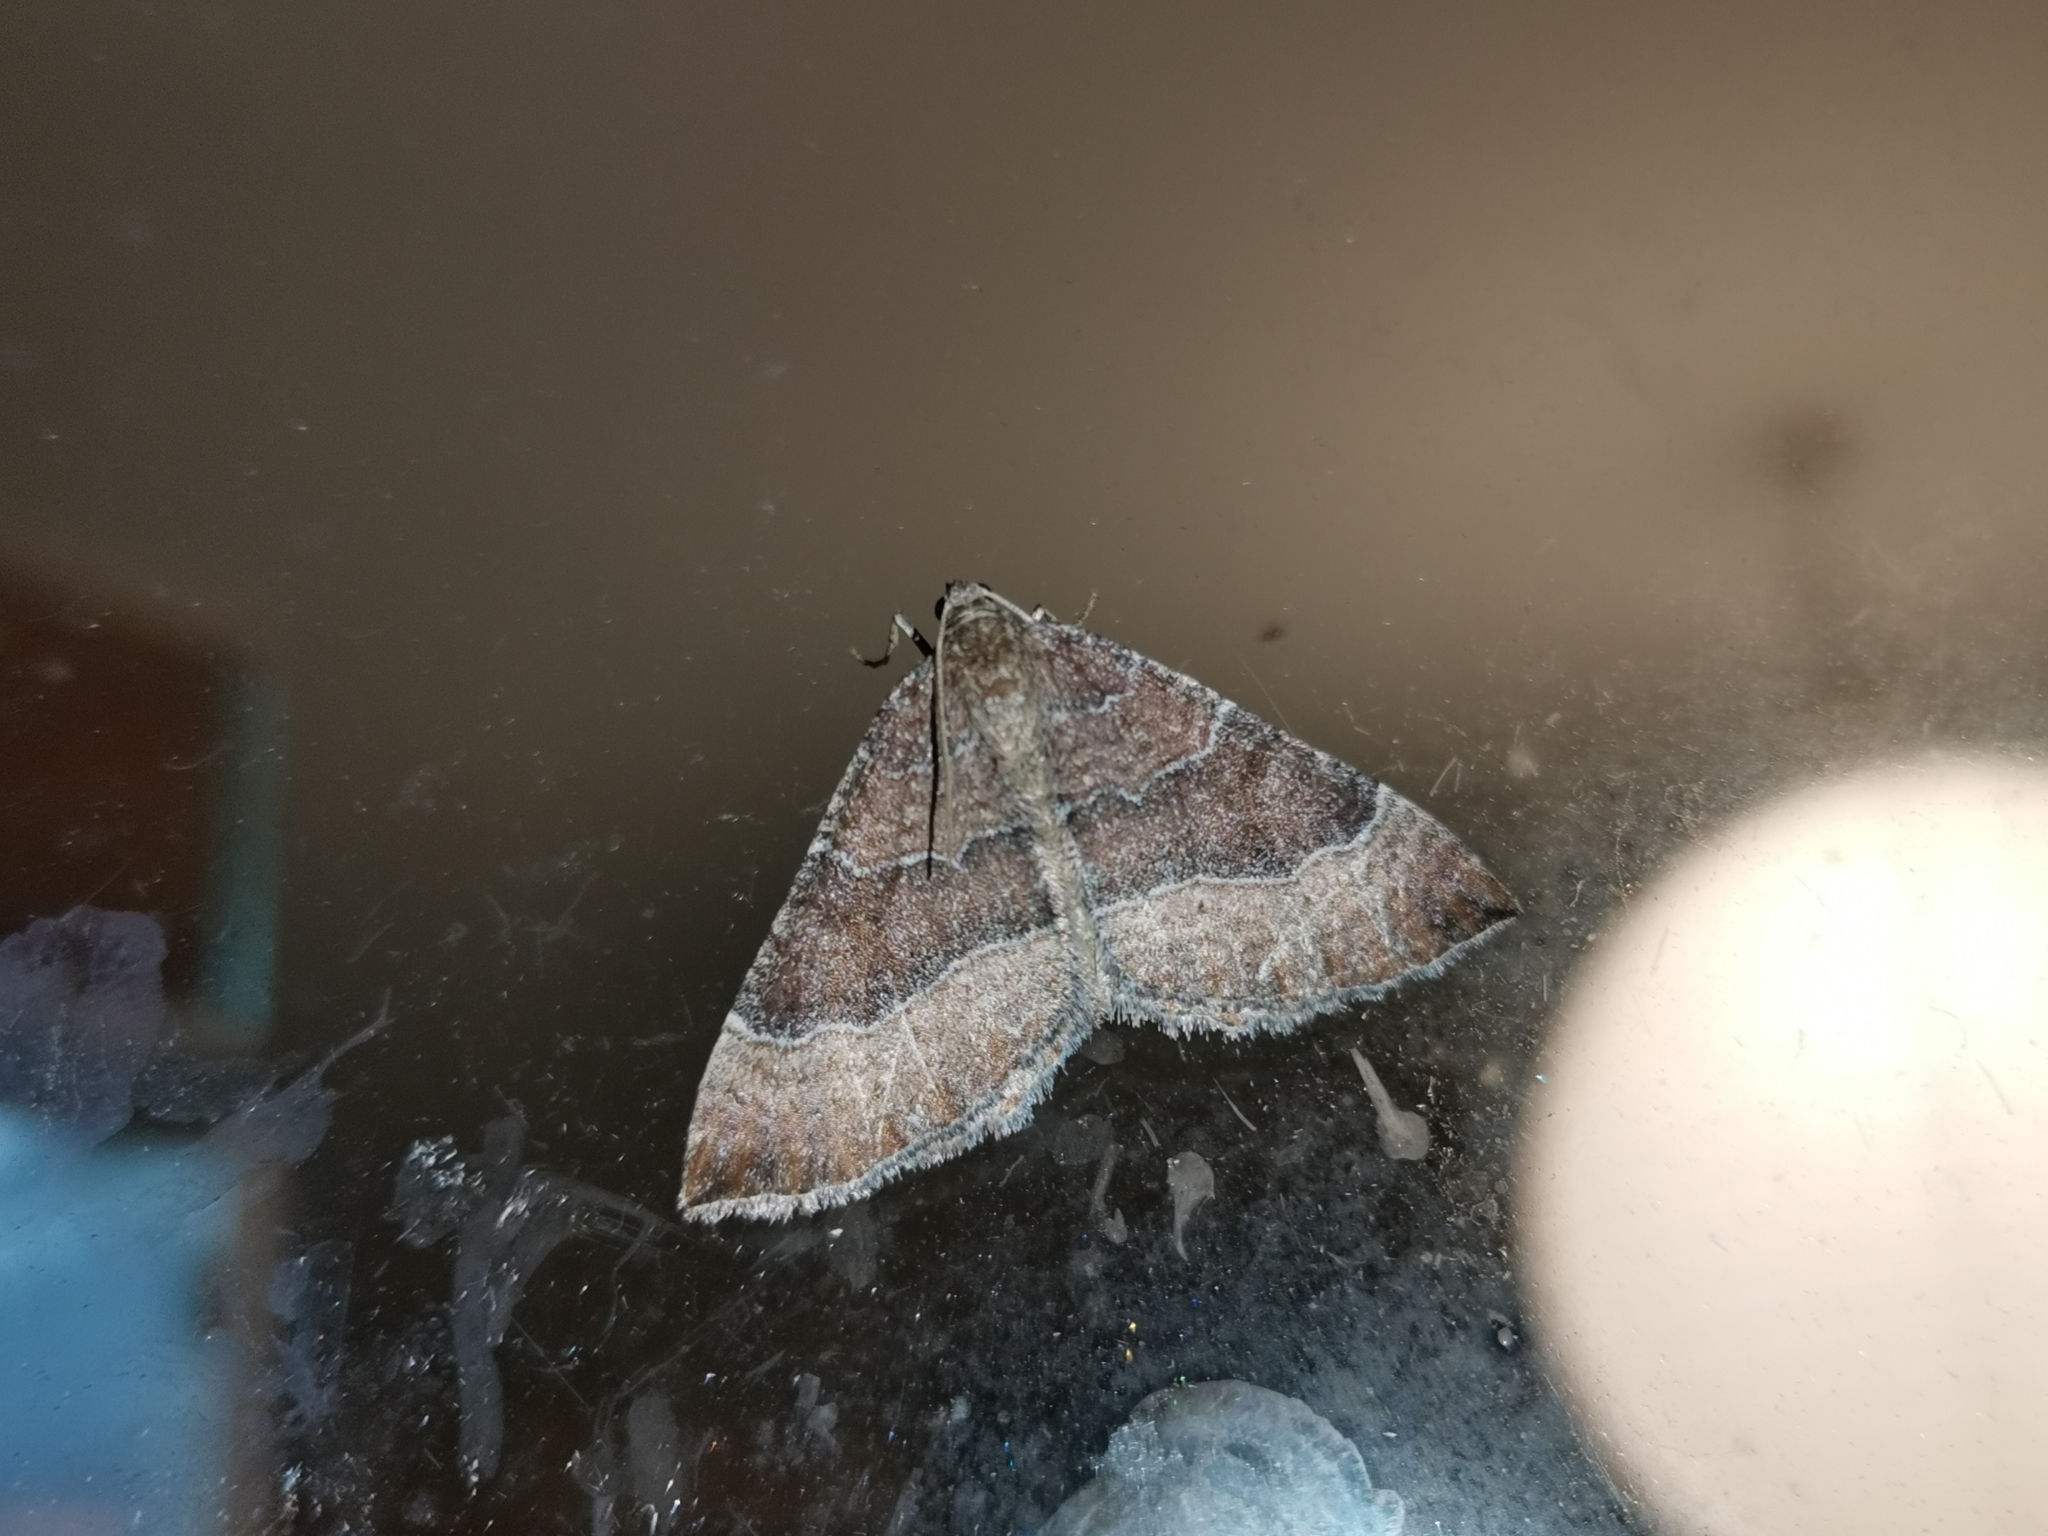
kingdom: Animalia
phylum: Arthropoda
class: Insecta
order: Lepidoptera
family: Geometridae
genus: Larentia
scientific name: Larentia clavaria
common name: Mallow
